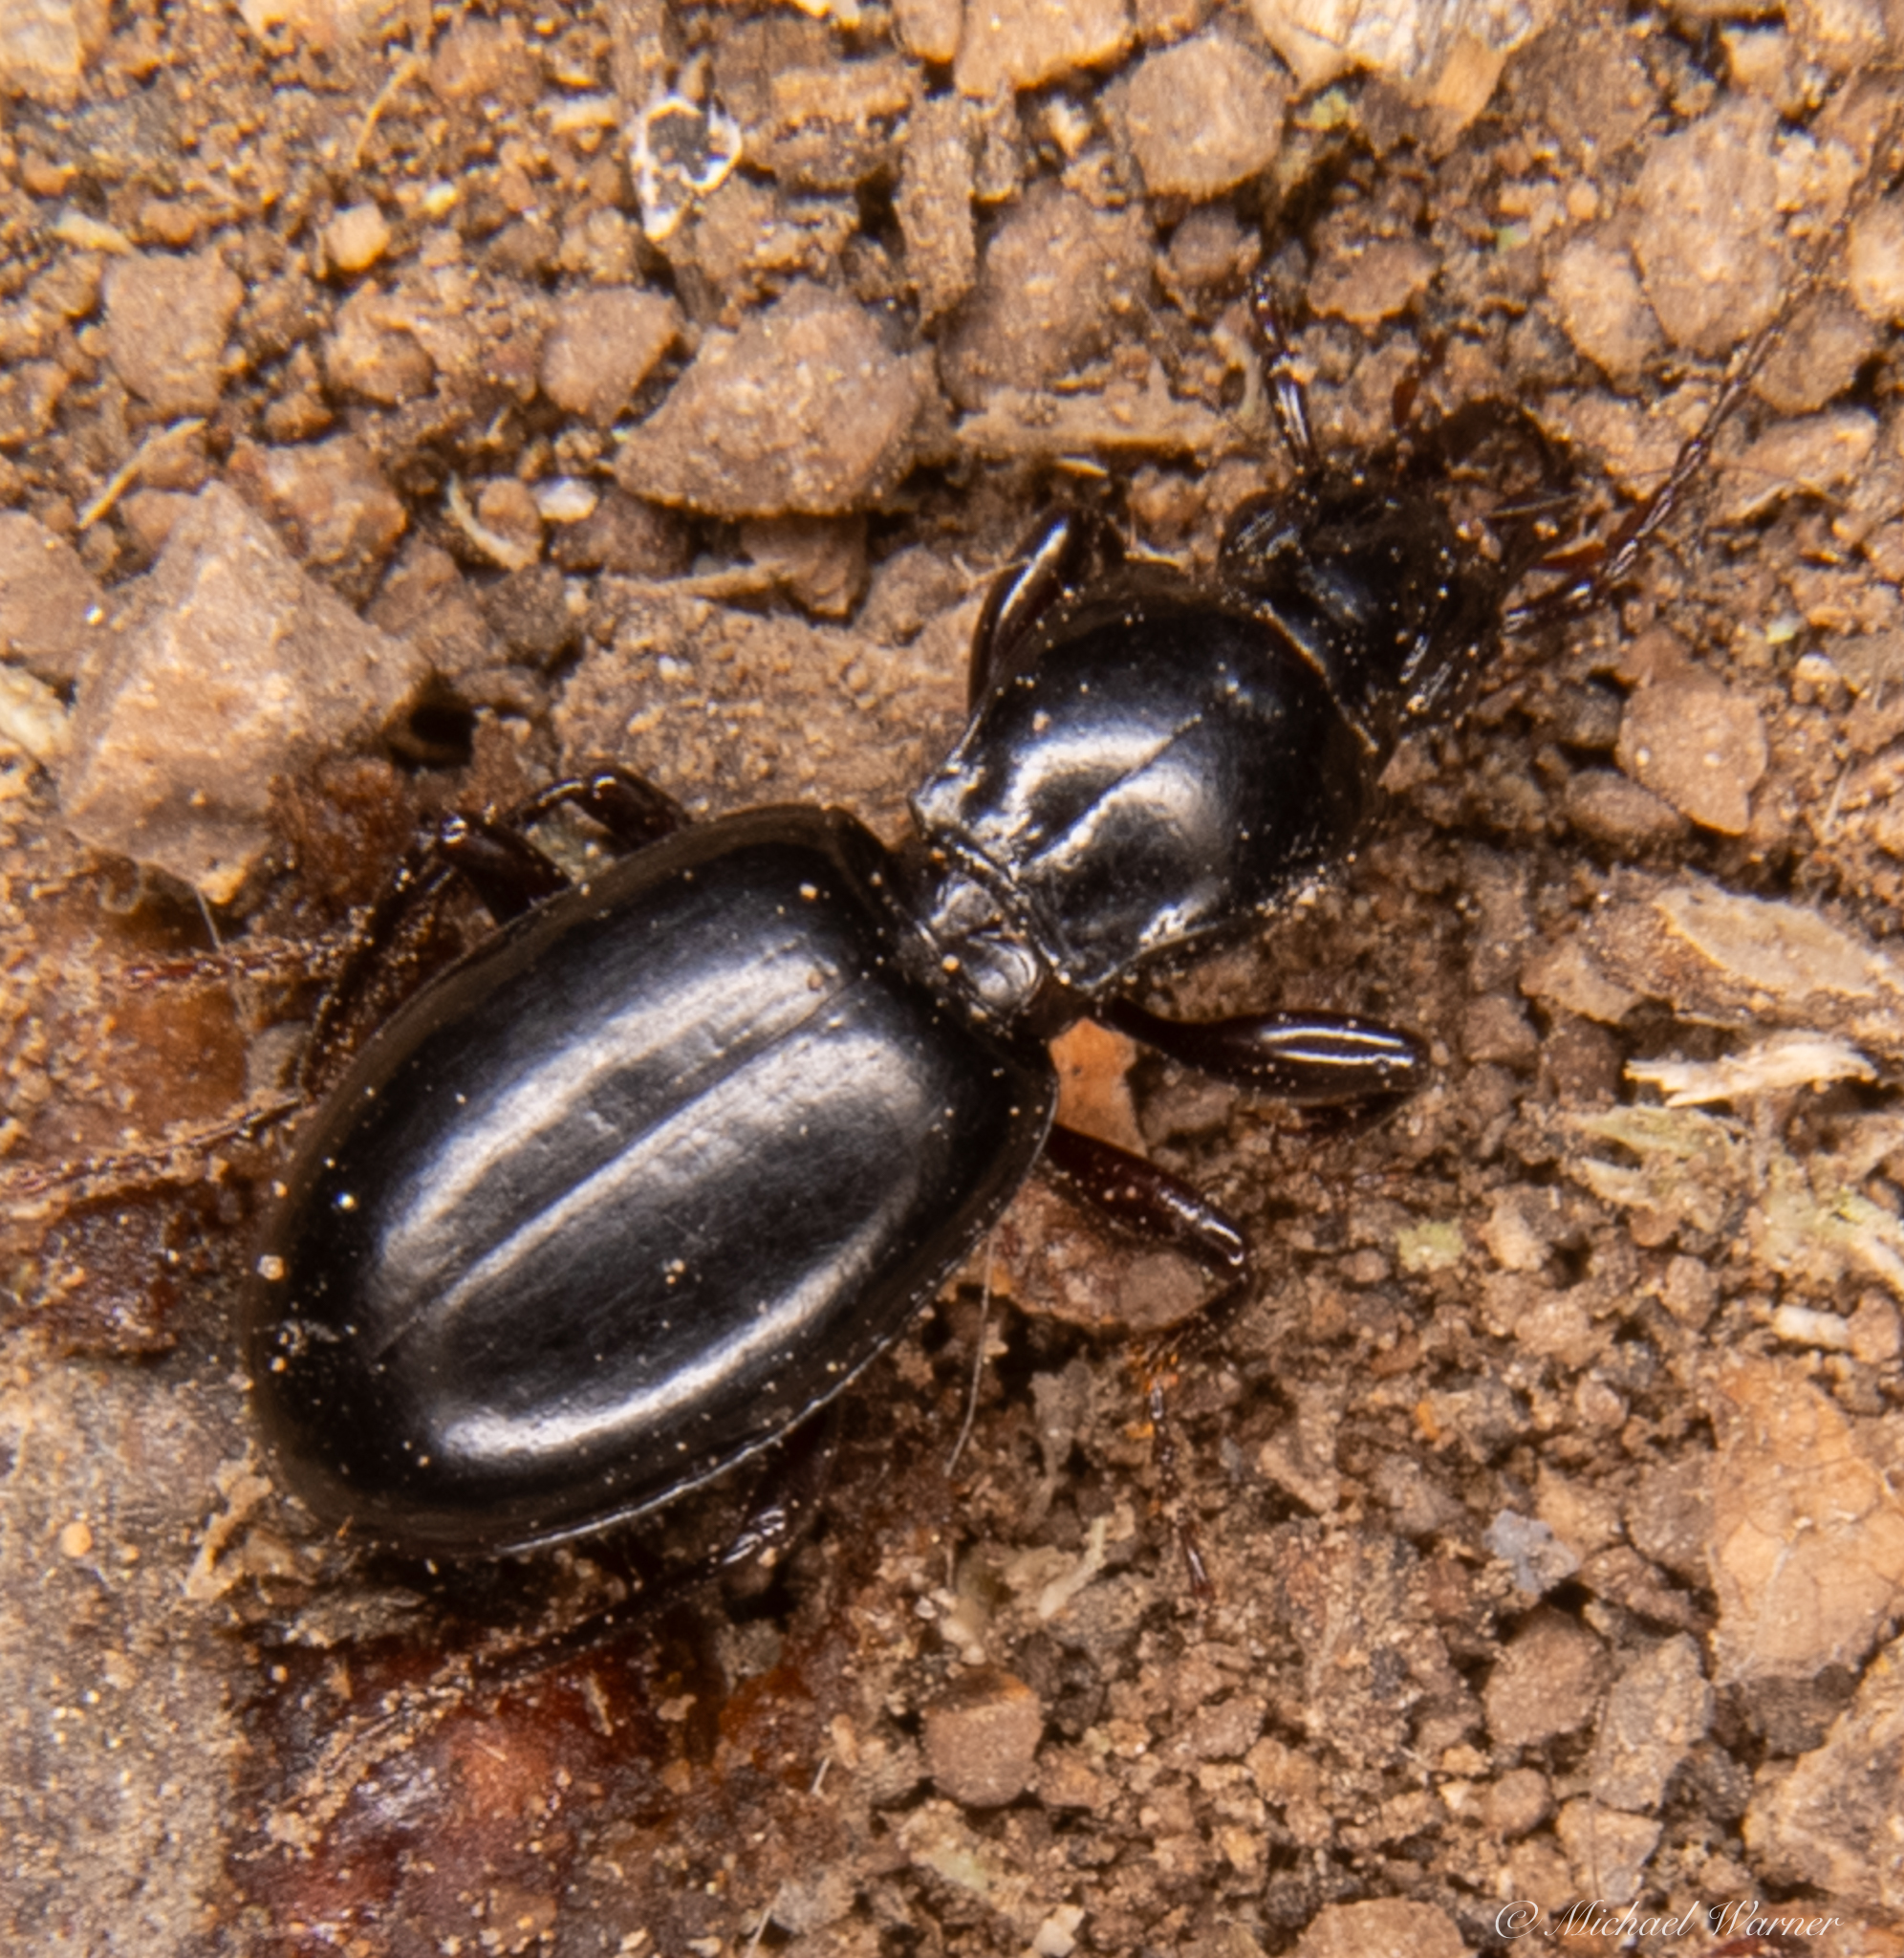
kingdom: Animalia
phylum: Arthropoda
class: Insecta
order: Coleoptera
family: Carabidae
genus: Promecognathus
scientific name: Promecognathus laevissimus
